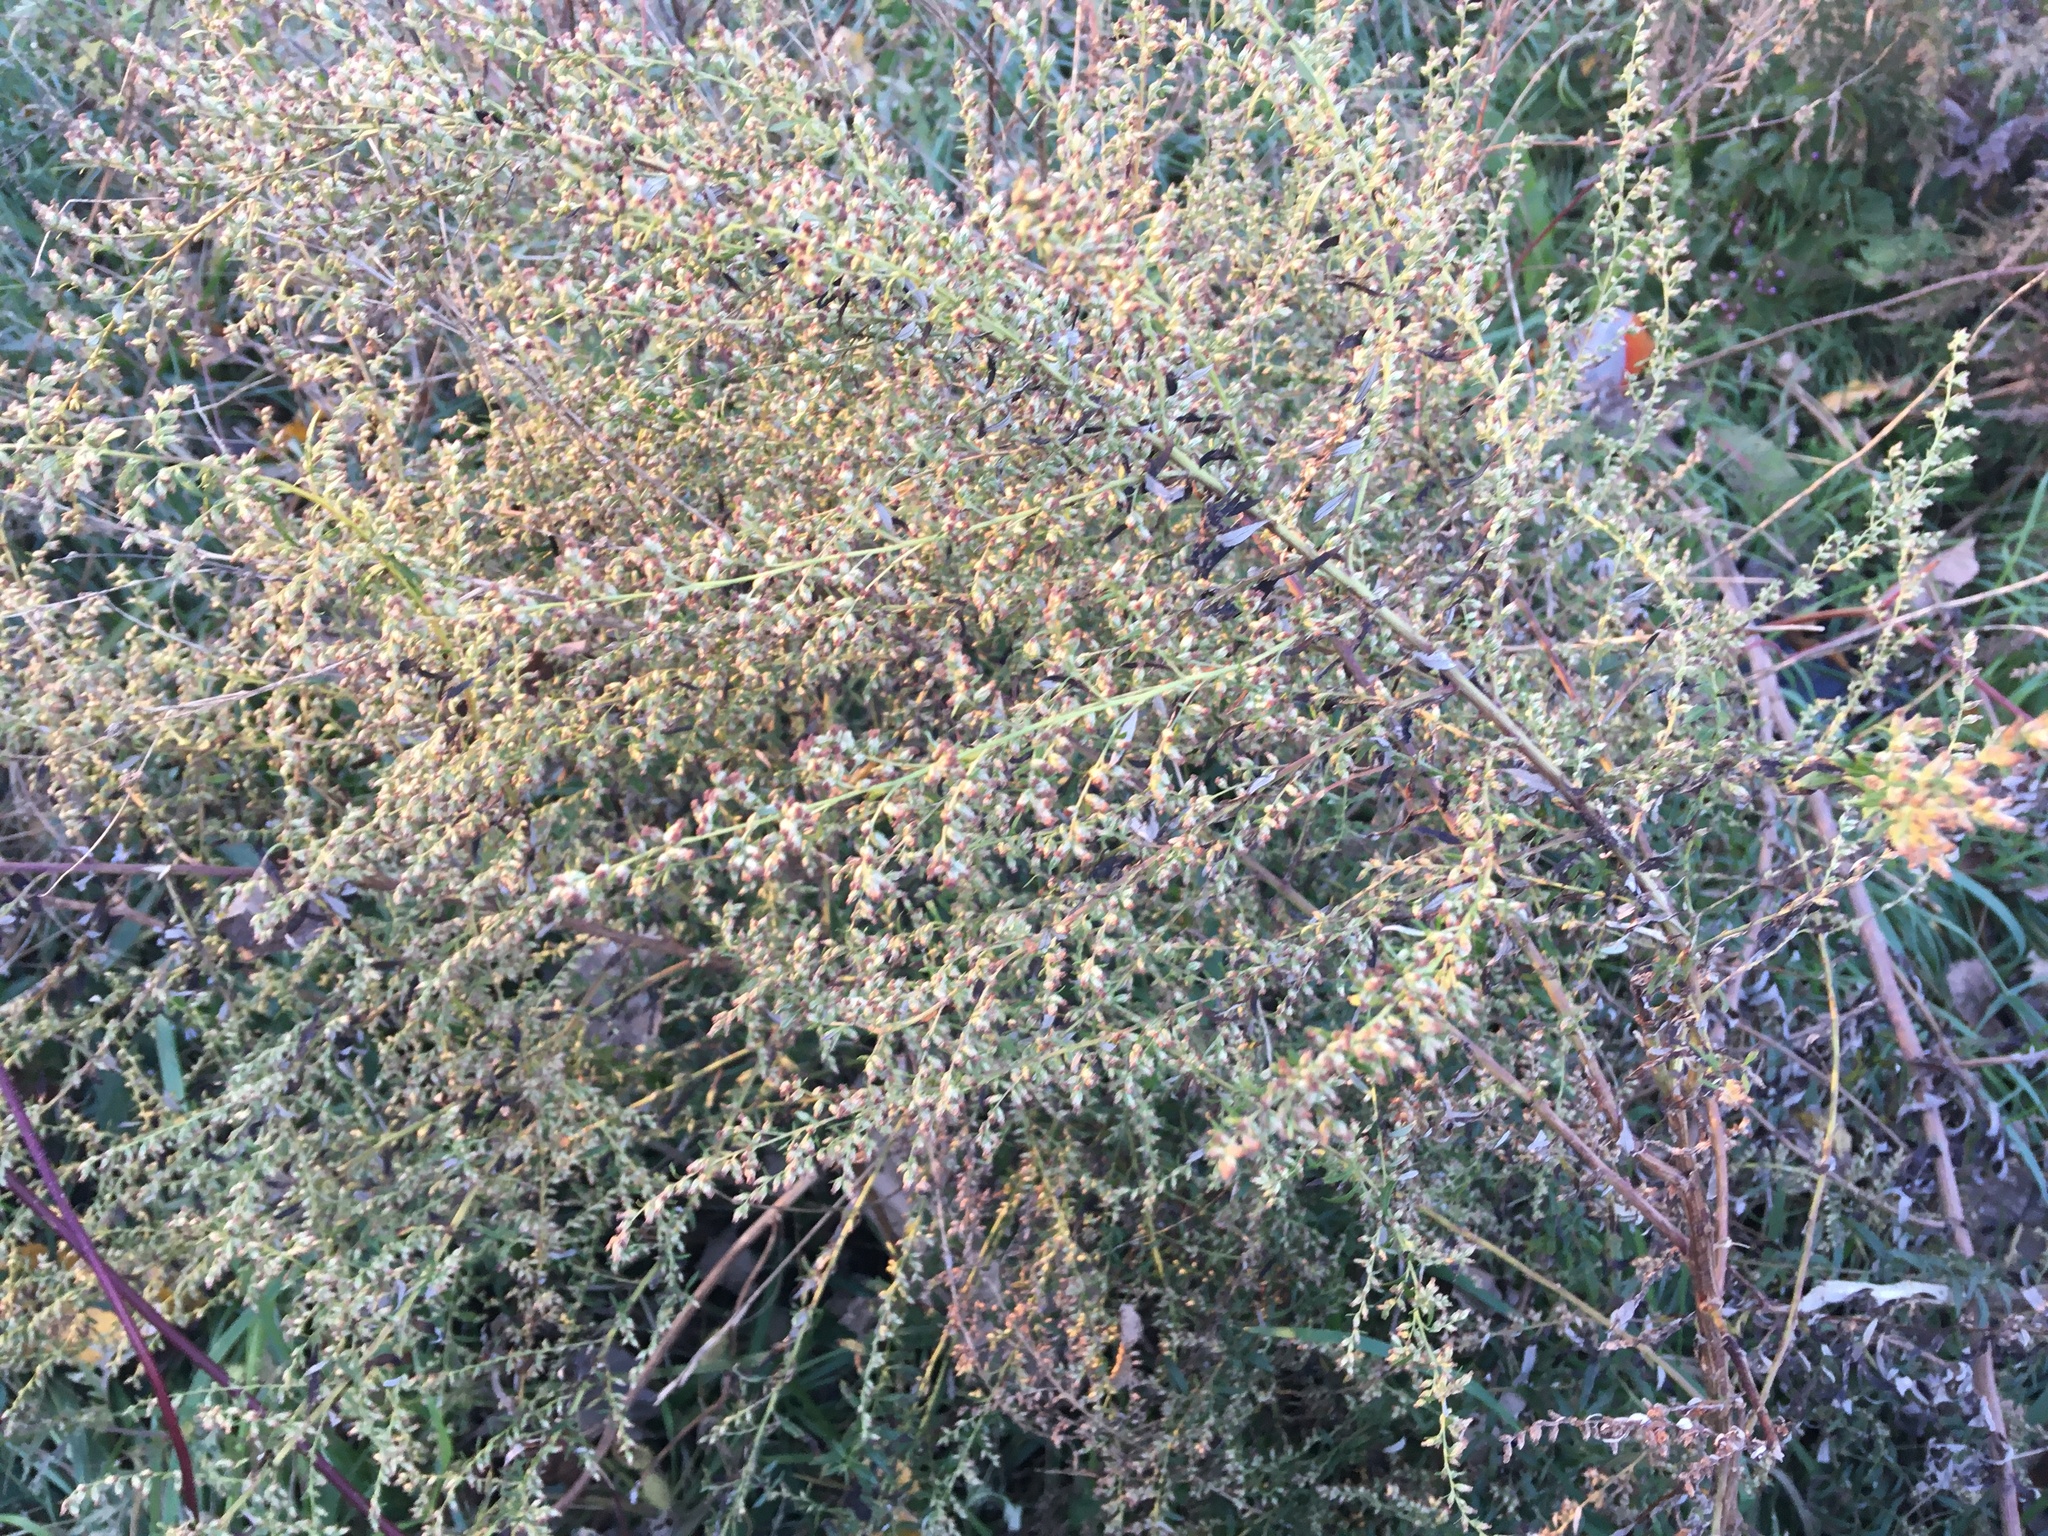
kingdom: Plantae
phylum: Tracheophyta
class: Magnoliopsida
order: Asterales
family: Asteraceae
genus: Artemisia
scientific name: Artemisia vulgaris
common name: Mugwort
